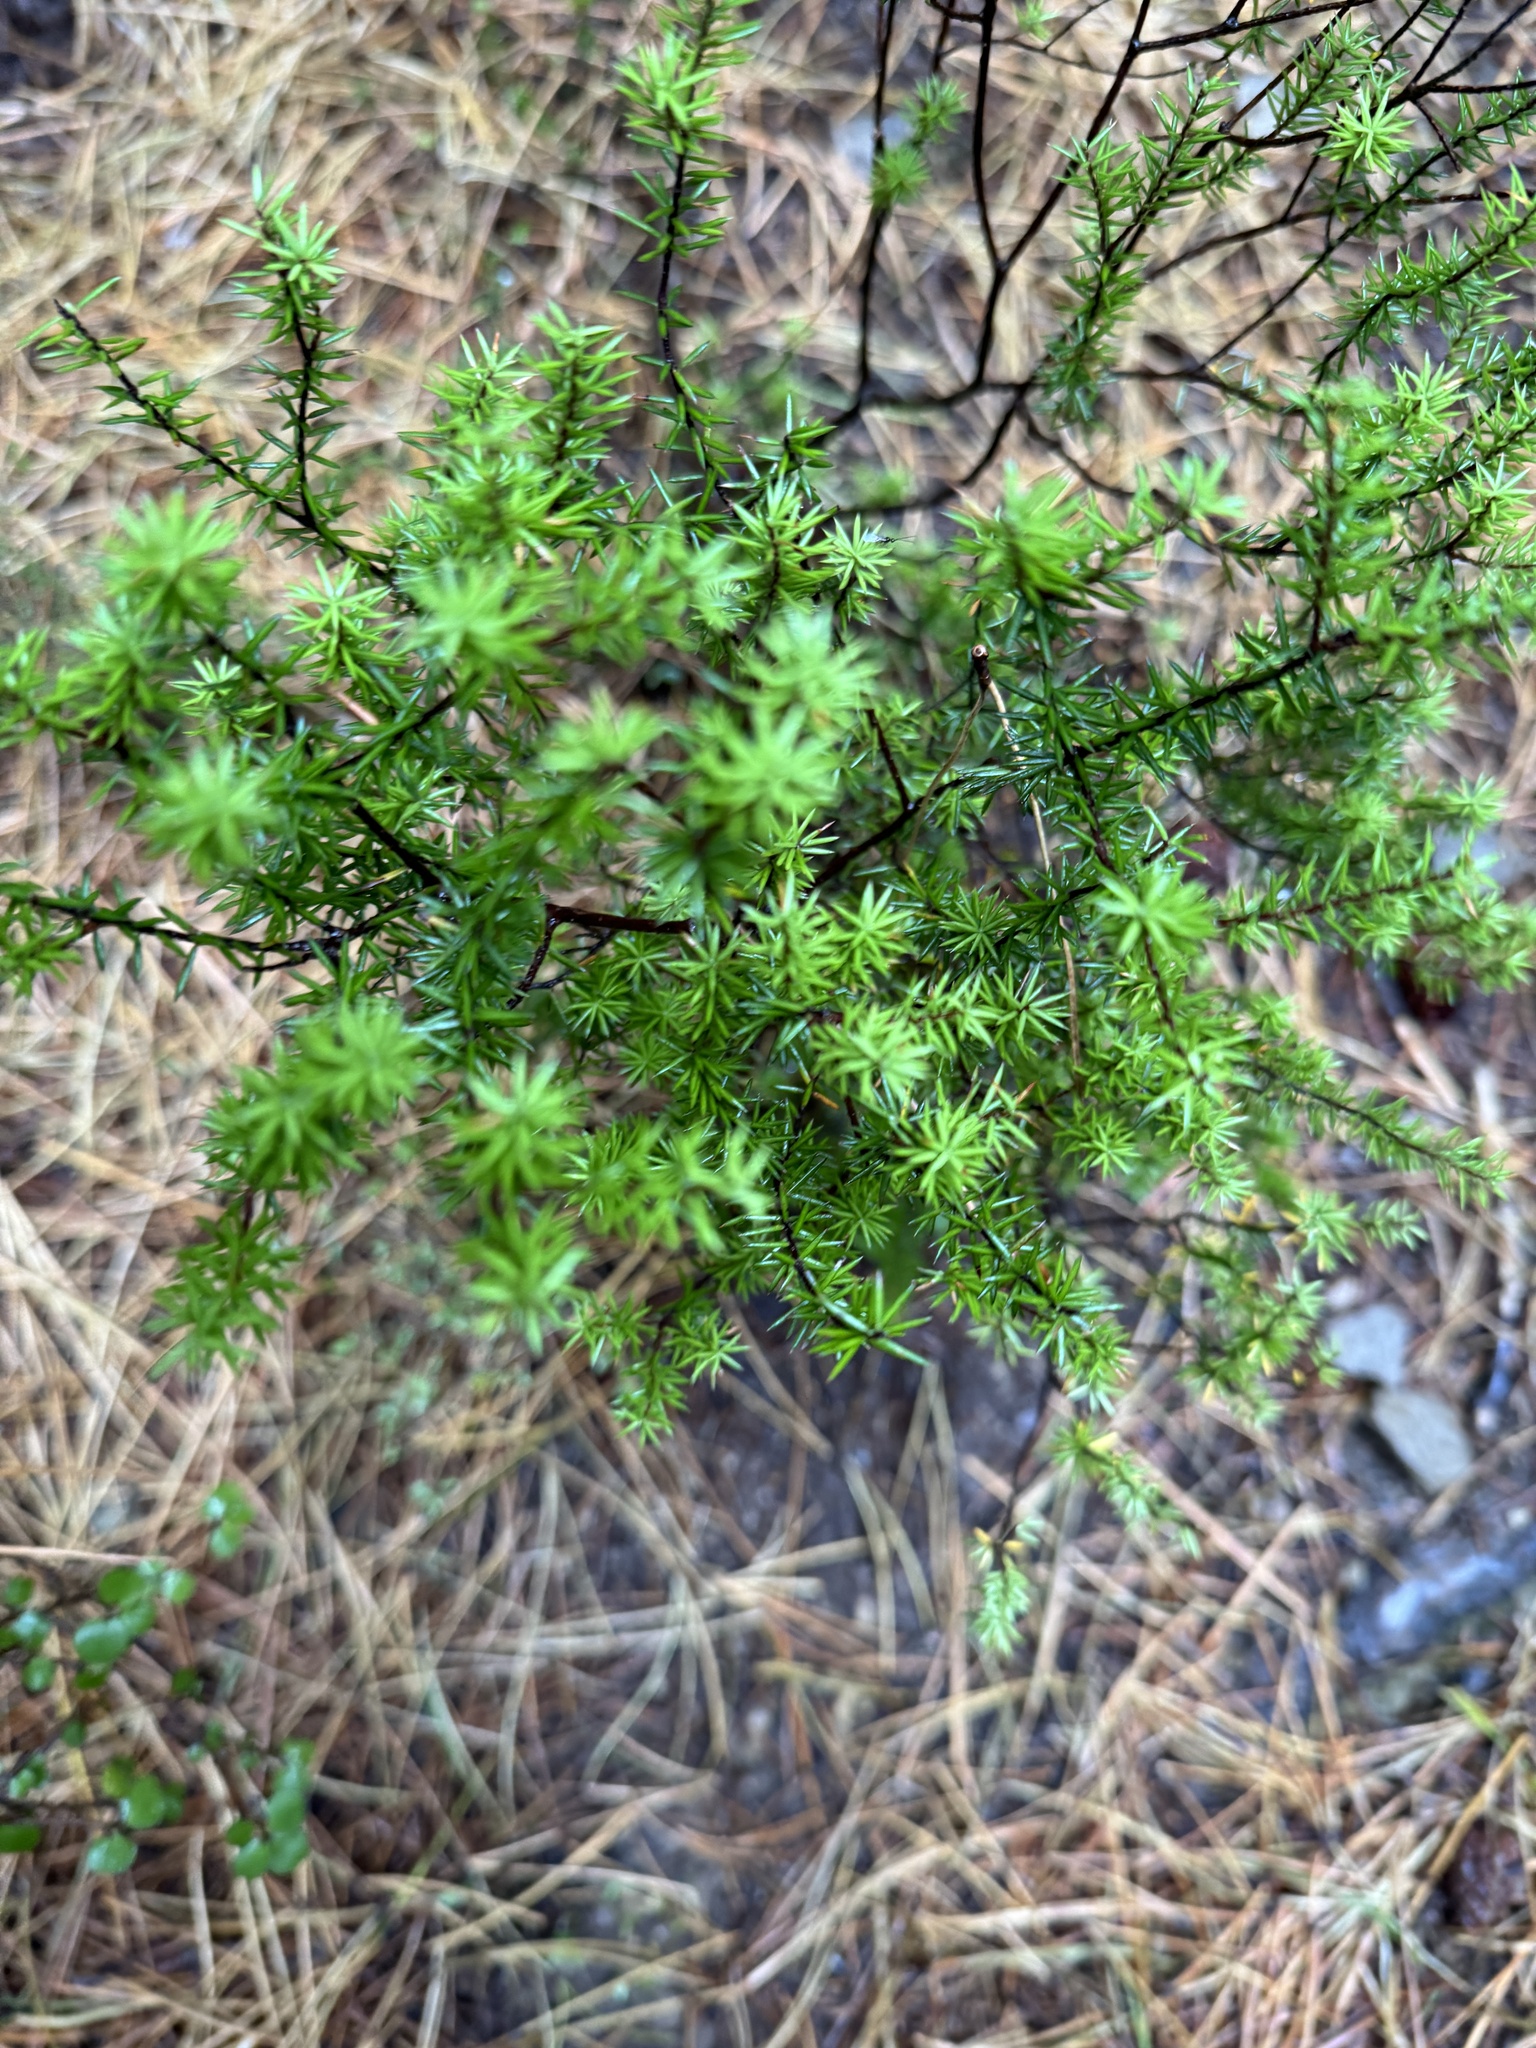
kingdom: Plantae
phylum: Tracheophyta
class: Magnoliopsida
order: Ericales
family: Ericaceae
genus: Leptecophylla
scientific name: Leptecophylla juniperina
